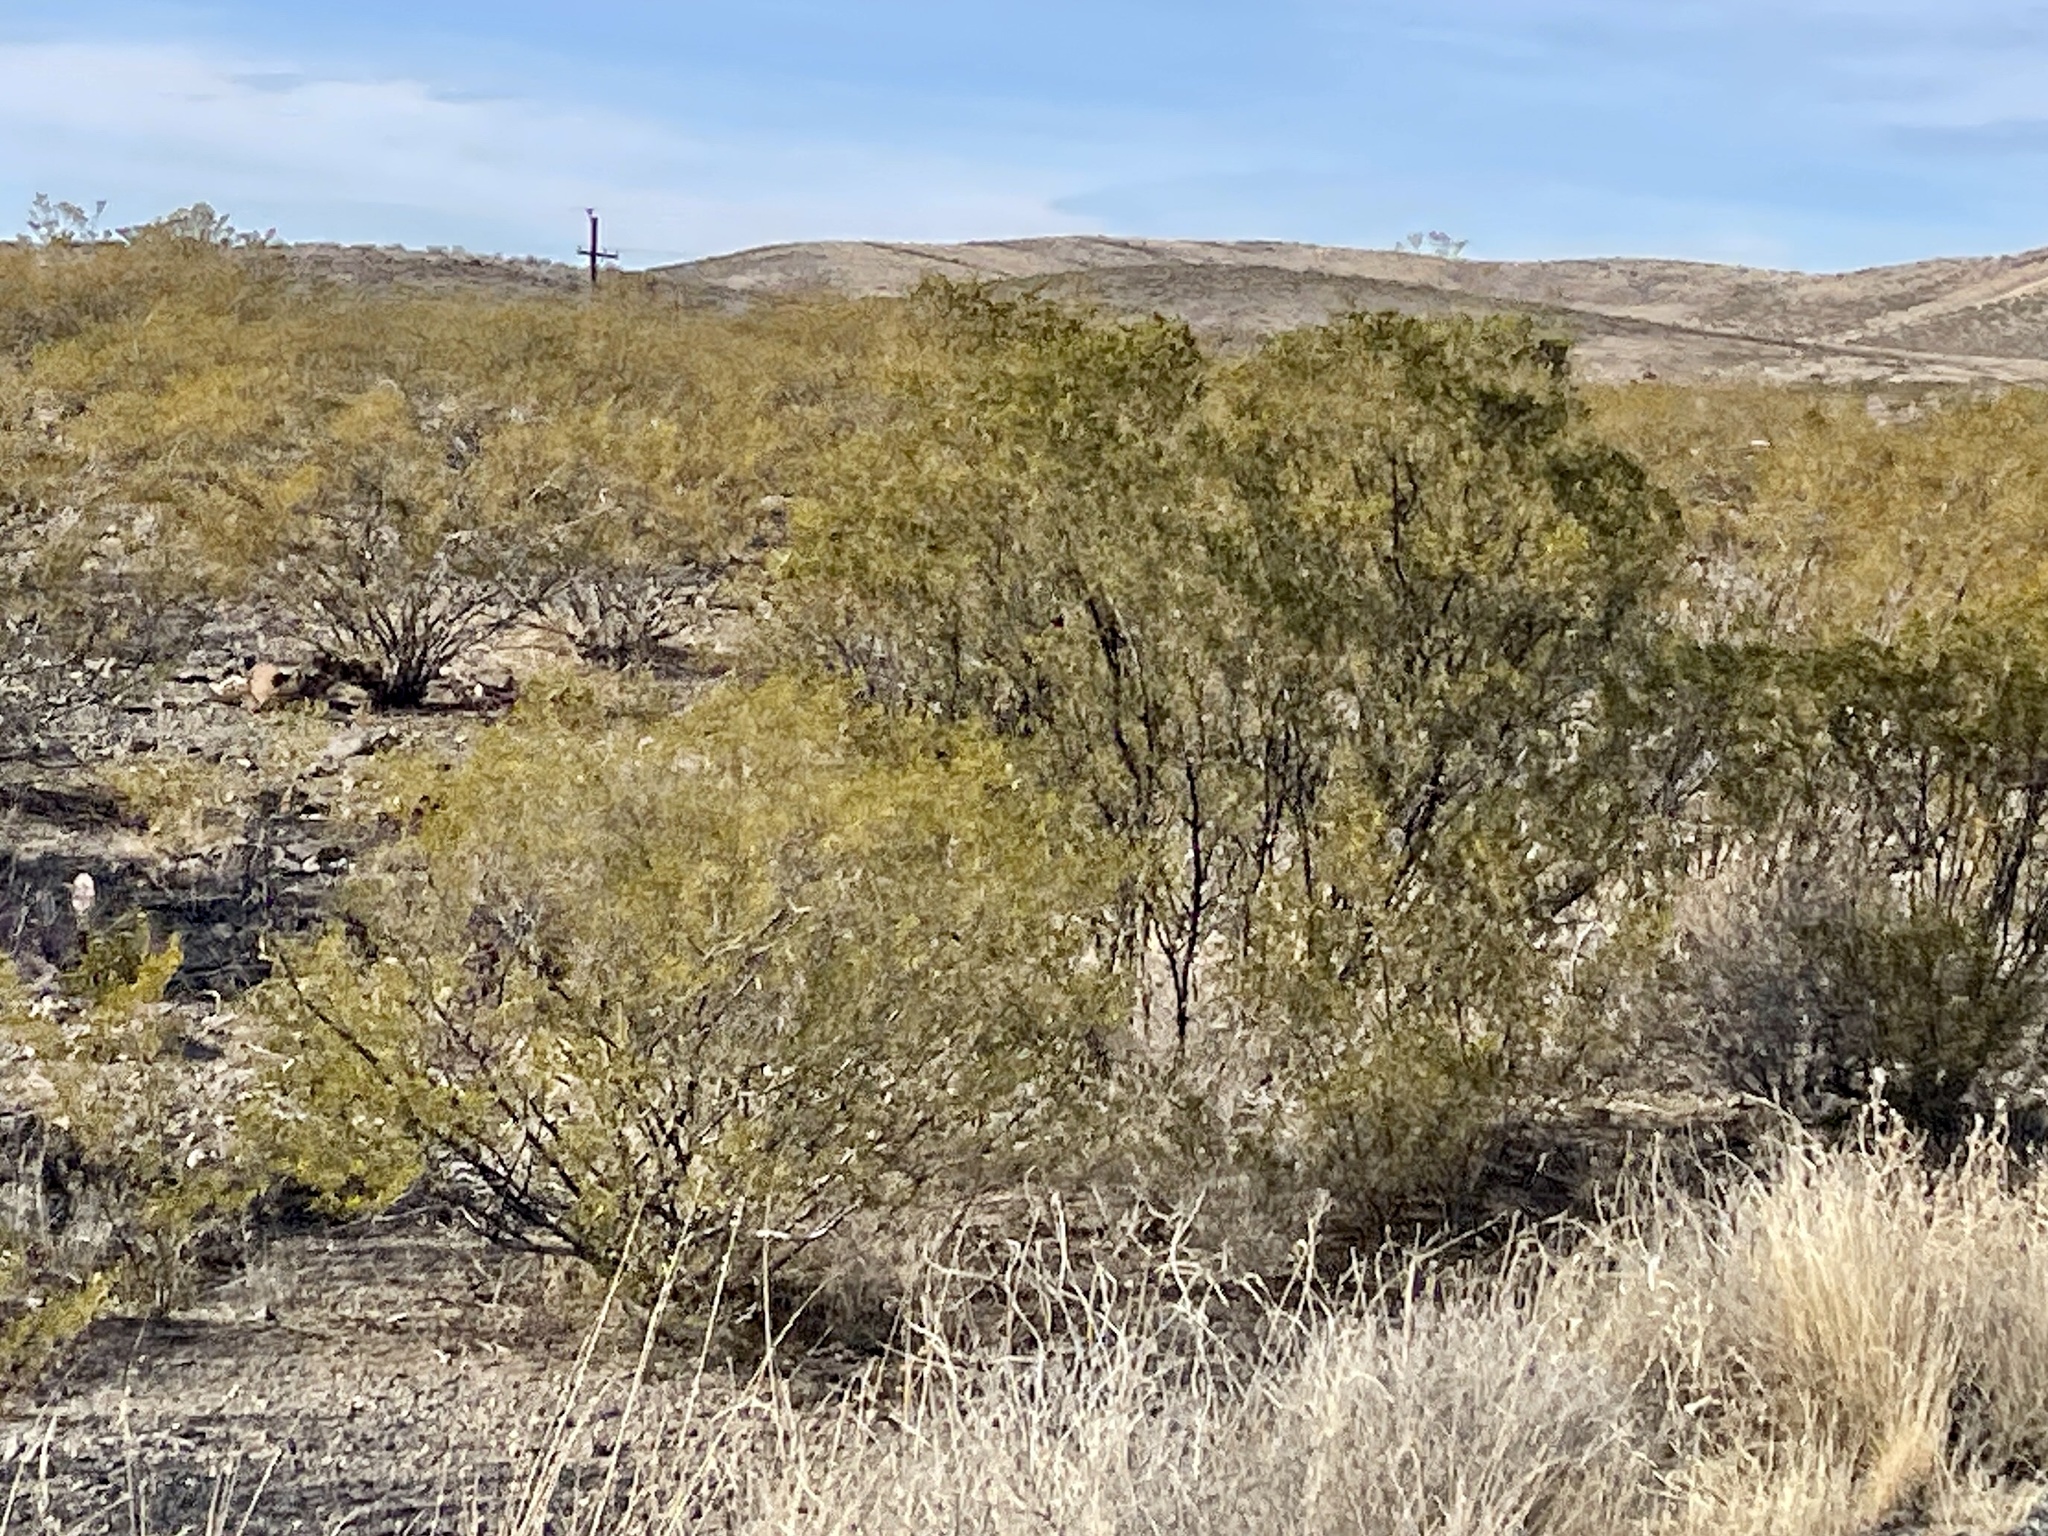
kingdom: Plantae
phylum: Tracheophyta
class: Magnoliopsida
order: Zygophyllales
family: Zygophyllaceae
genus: Larrea
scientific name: Larrea tridentata
